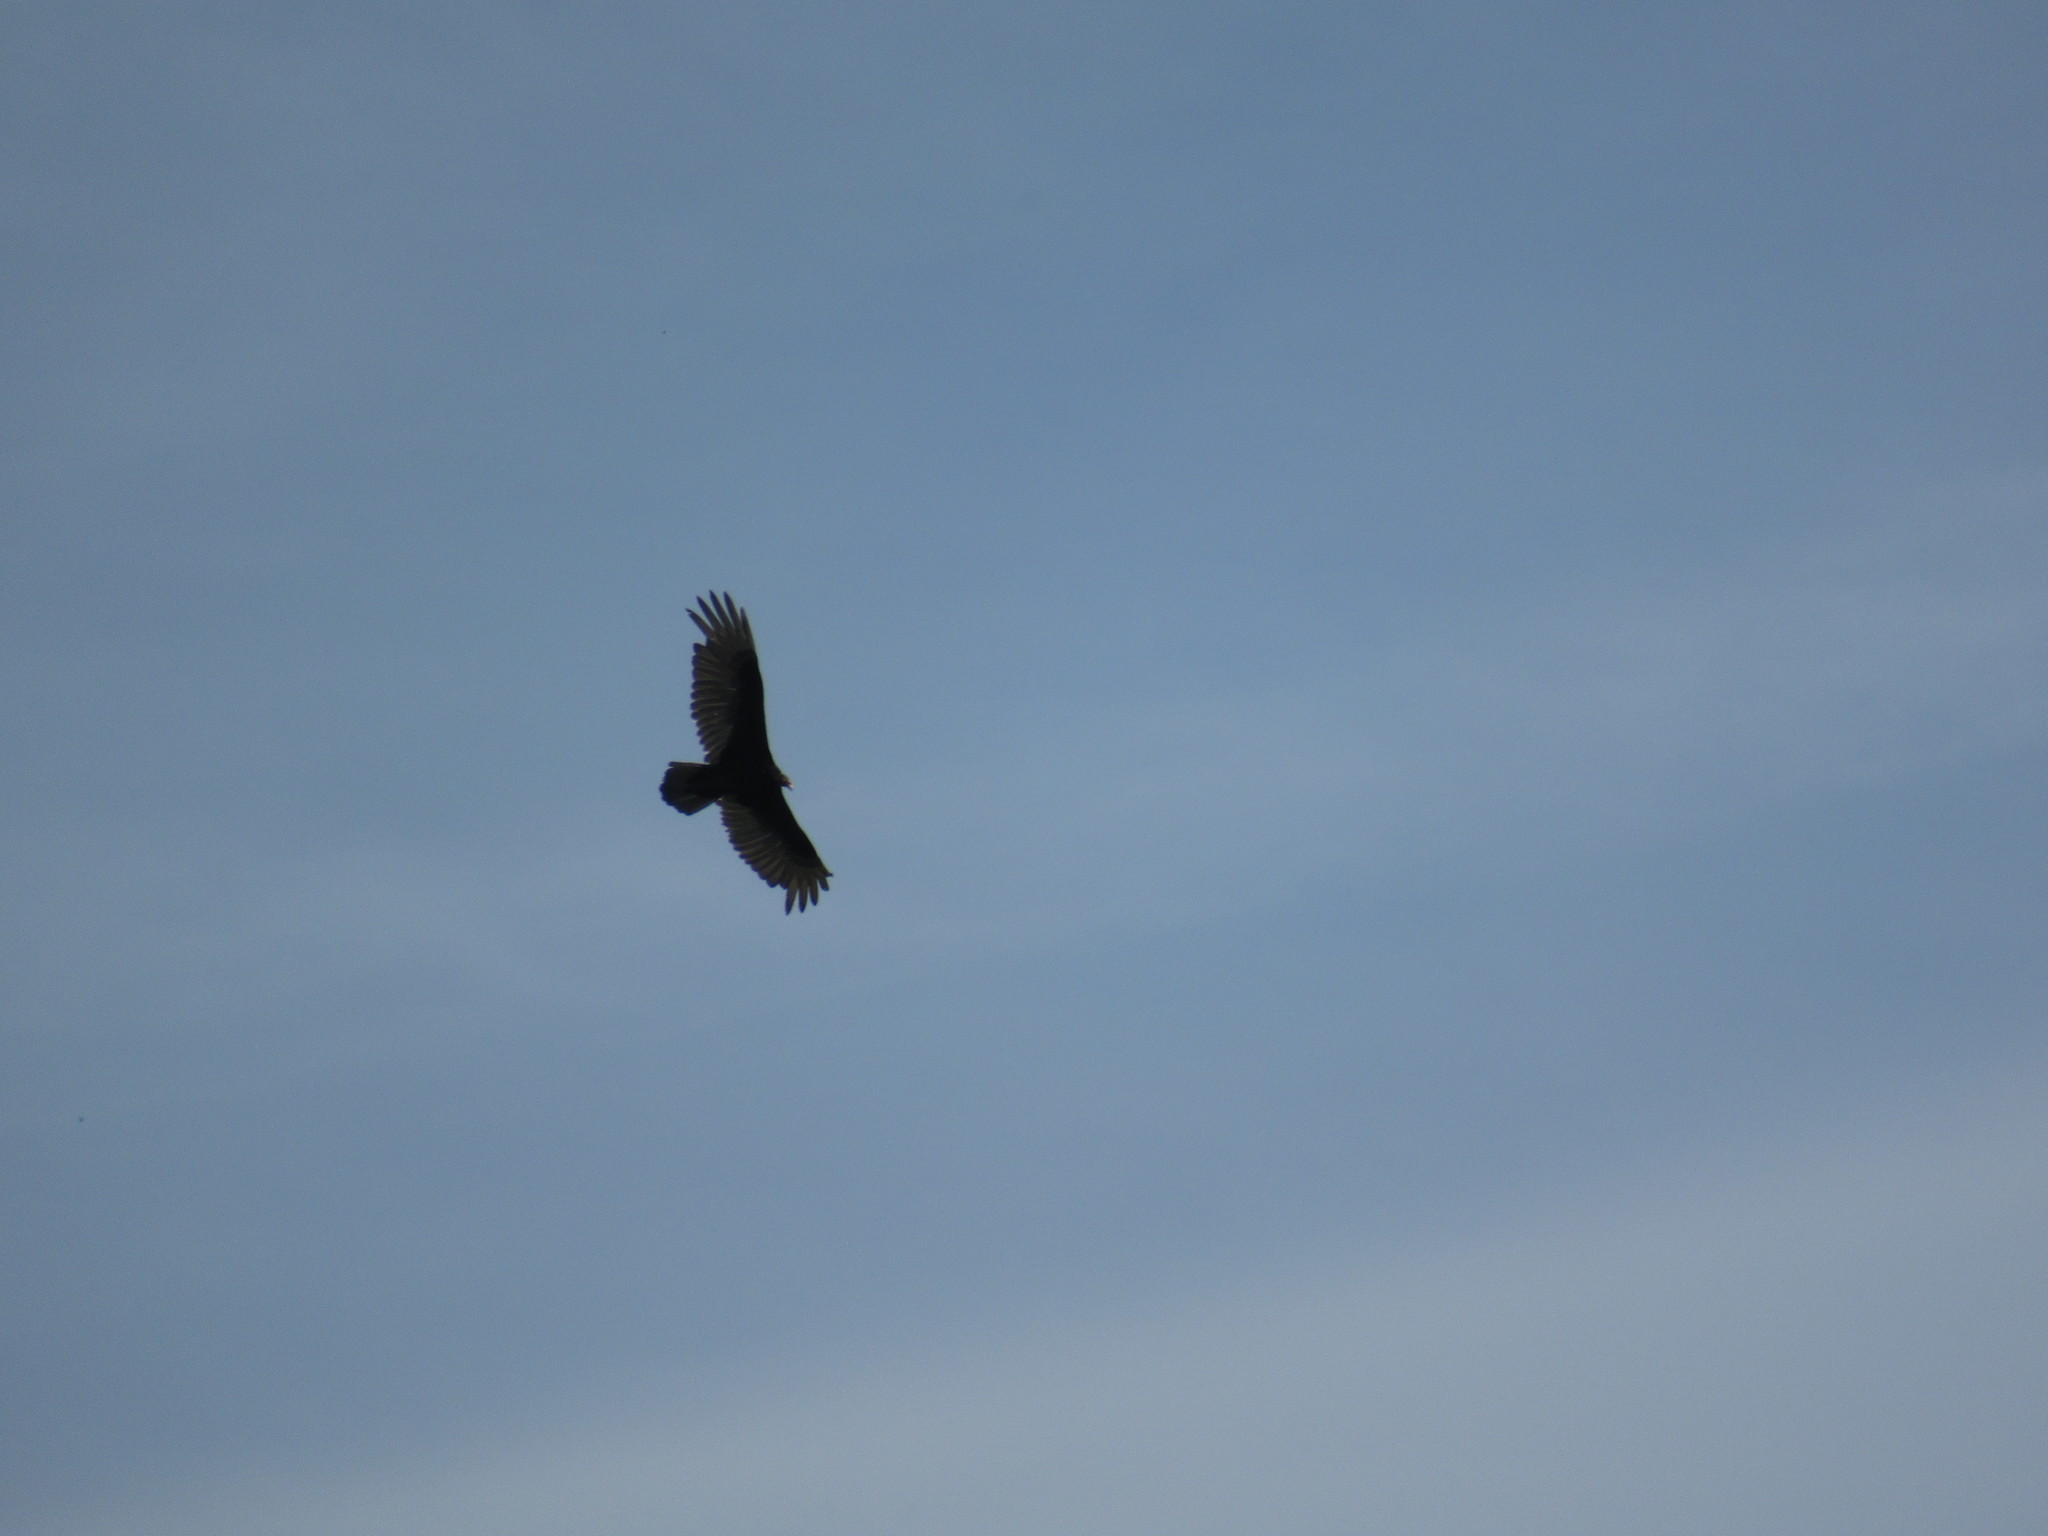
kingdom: Animalia
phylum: Chordata
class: Aves
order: Accipitriformes
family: Cathartidae
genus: Cathartes
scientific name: Cathartes aura
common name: Turkey vulture
